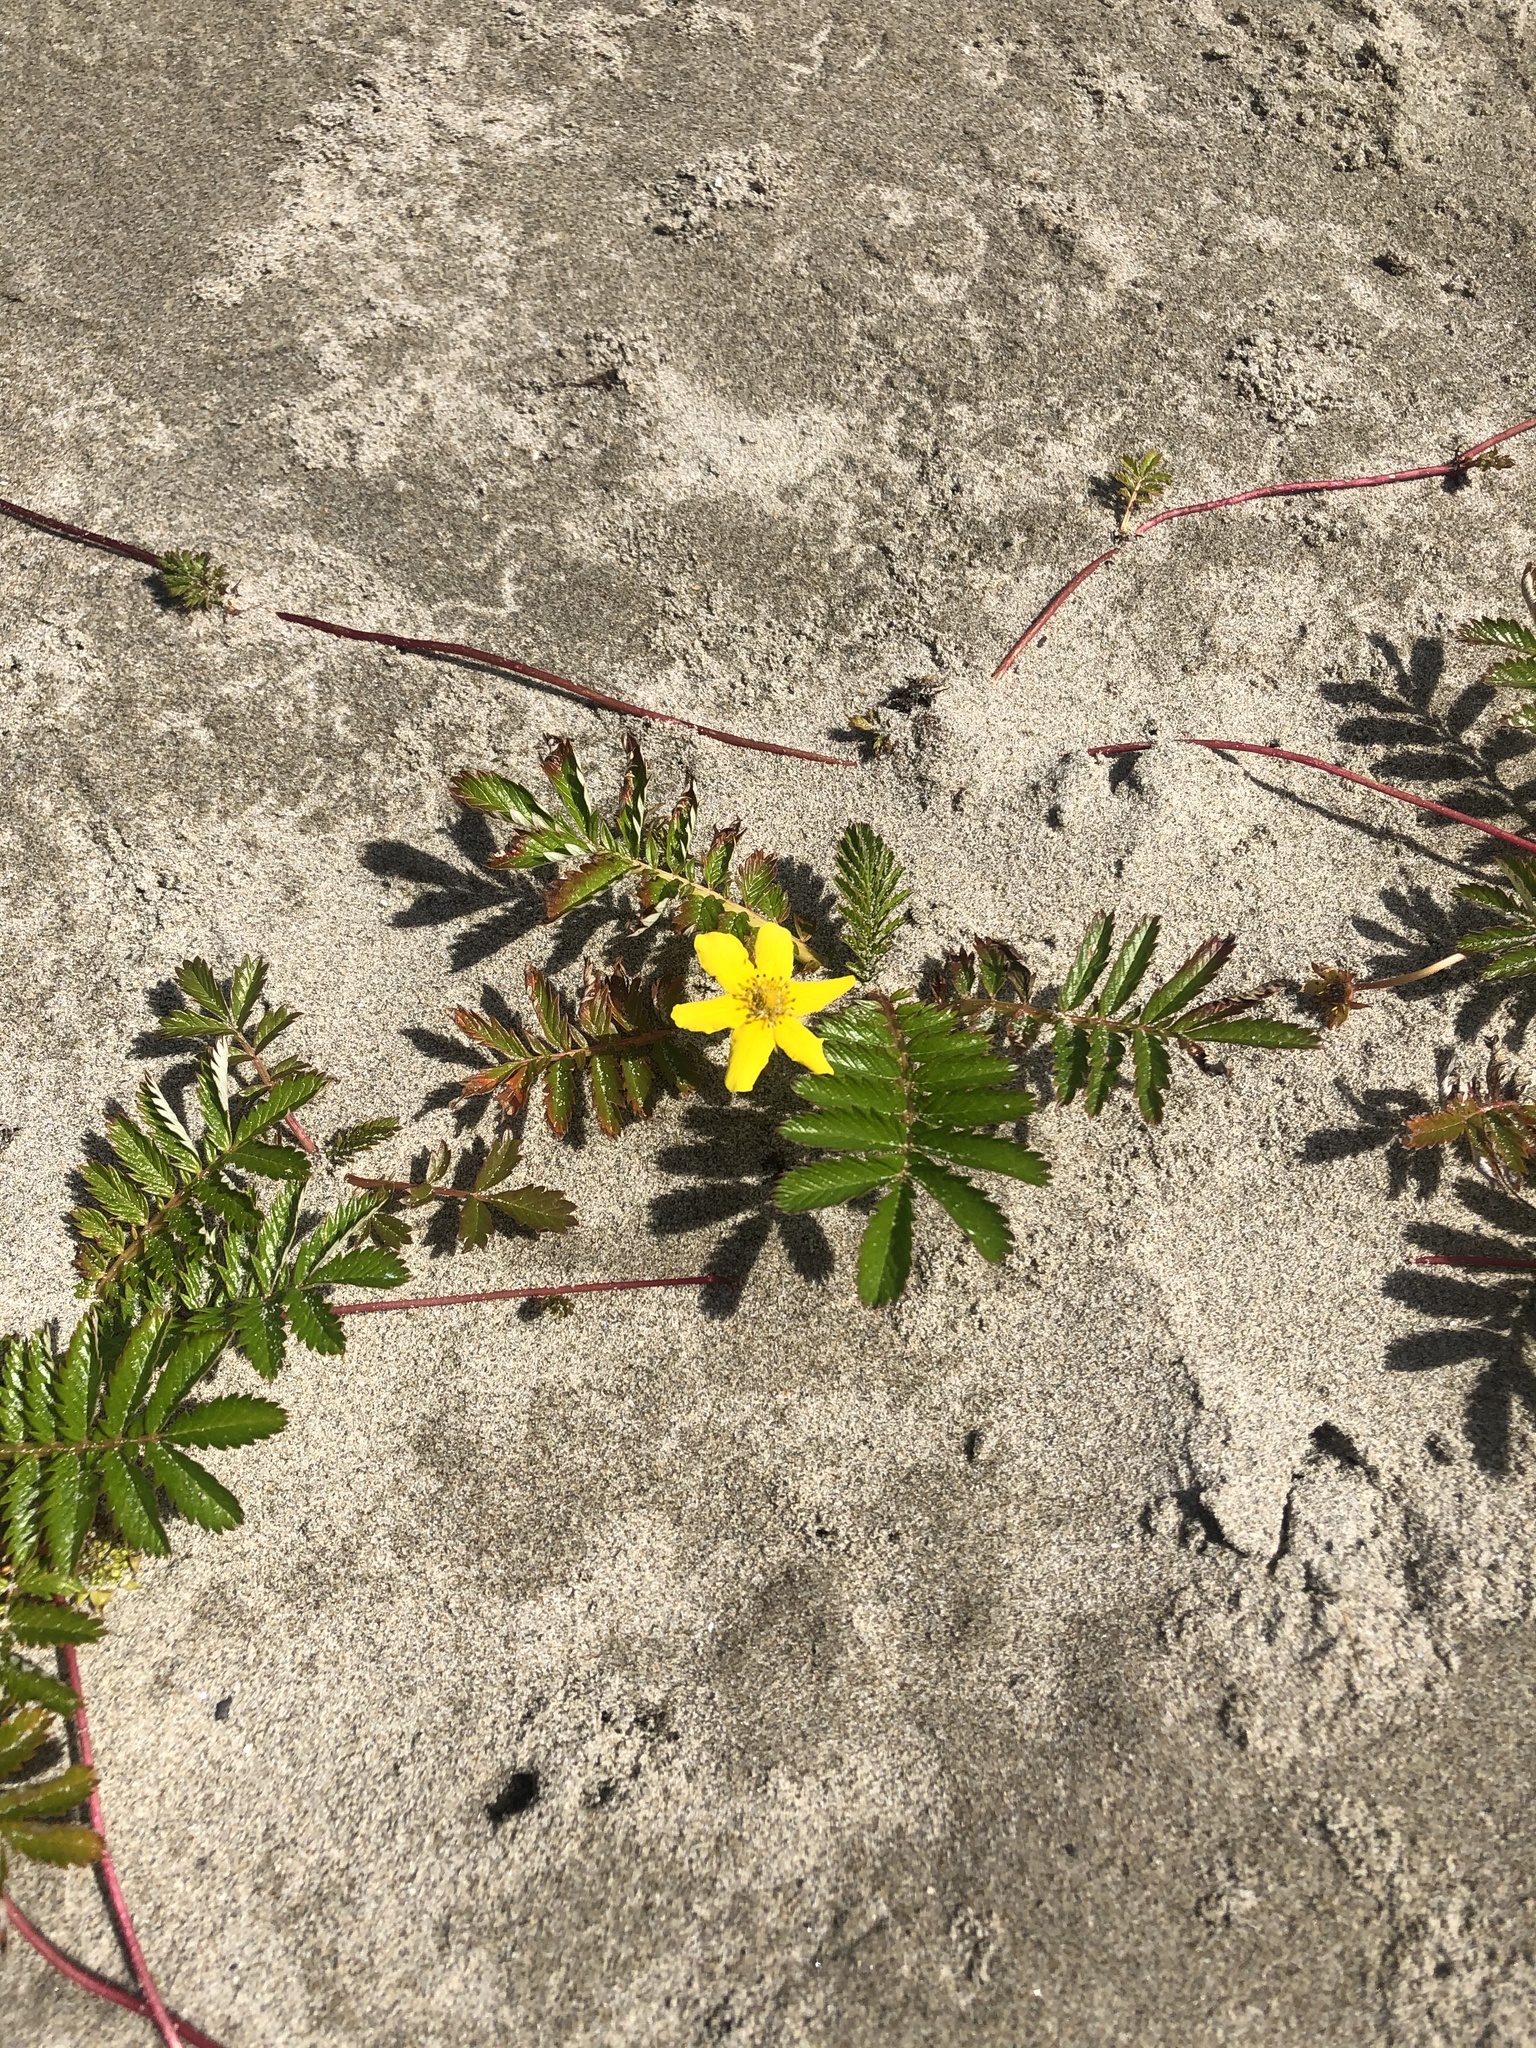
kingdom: Plantae
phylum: Tracheophyta
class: Magnoliopsida
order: Rosales
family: Rosaceae
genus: Argentina
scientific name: Argentina anserina
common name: Common silverweed
